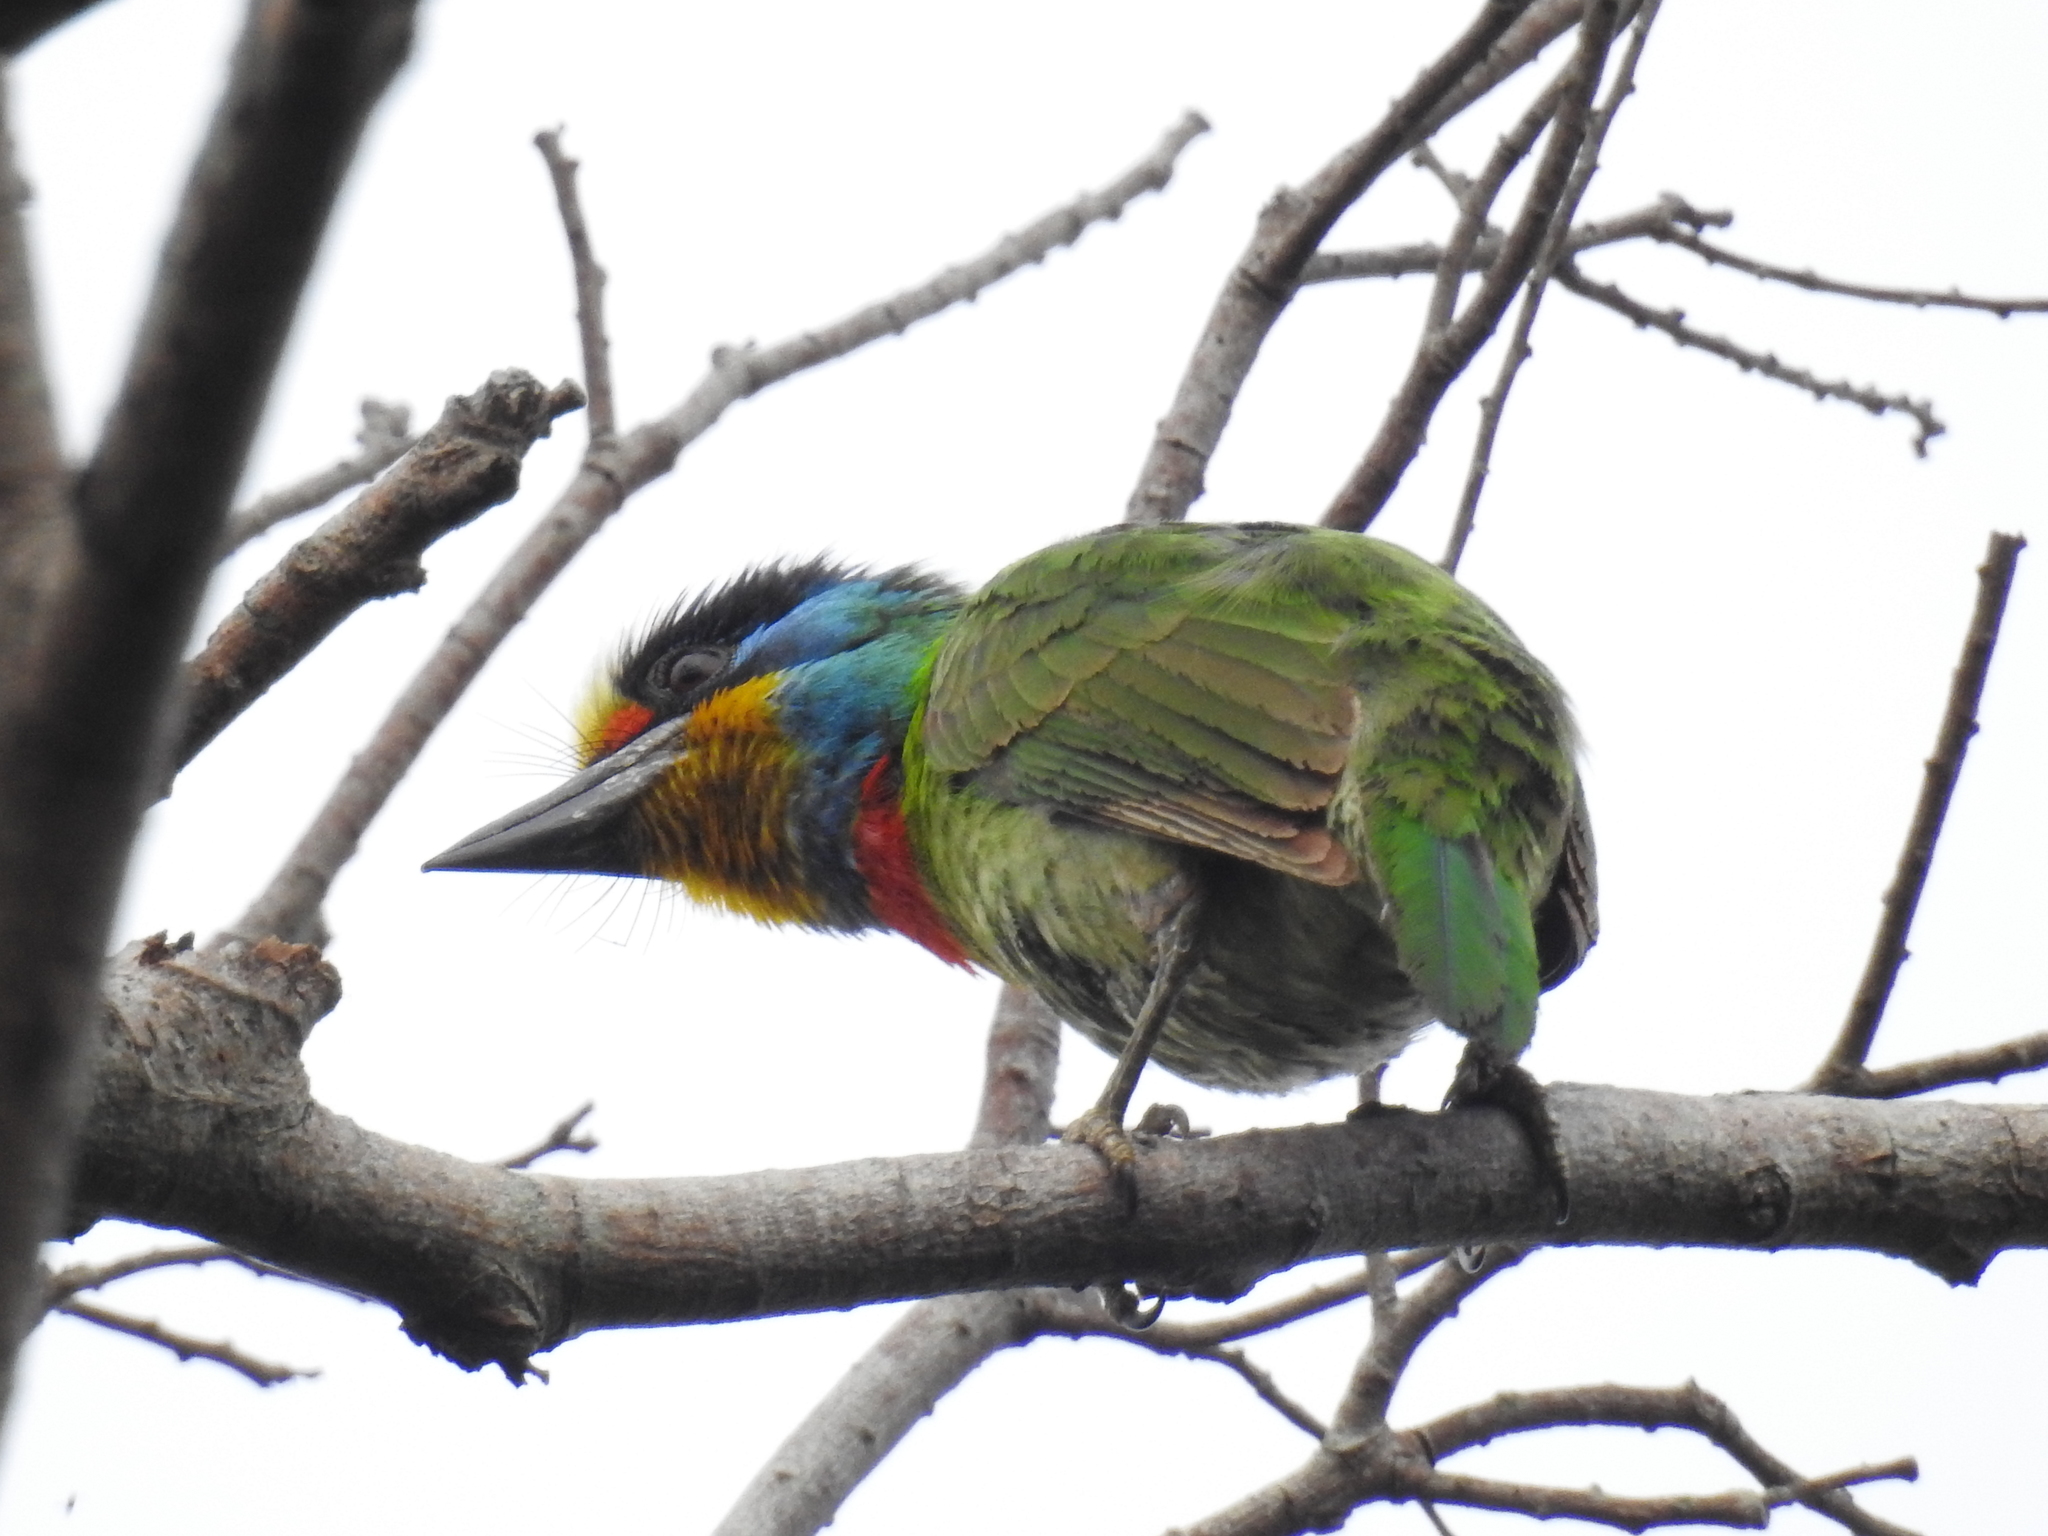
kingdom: Animalia
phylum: Chordata
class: Aves
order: Piciformes
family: Megalaimidae
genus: Psilopogon
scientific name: Psilopogon nuchalis
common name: Taiwan barbet
